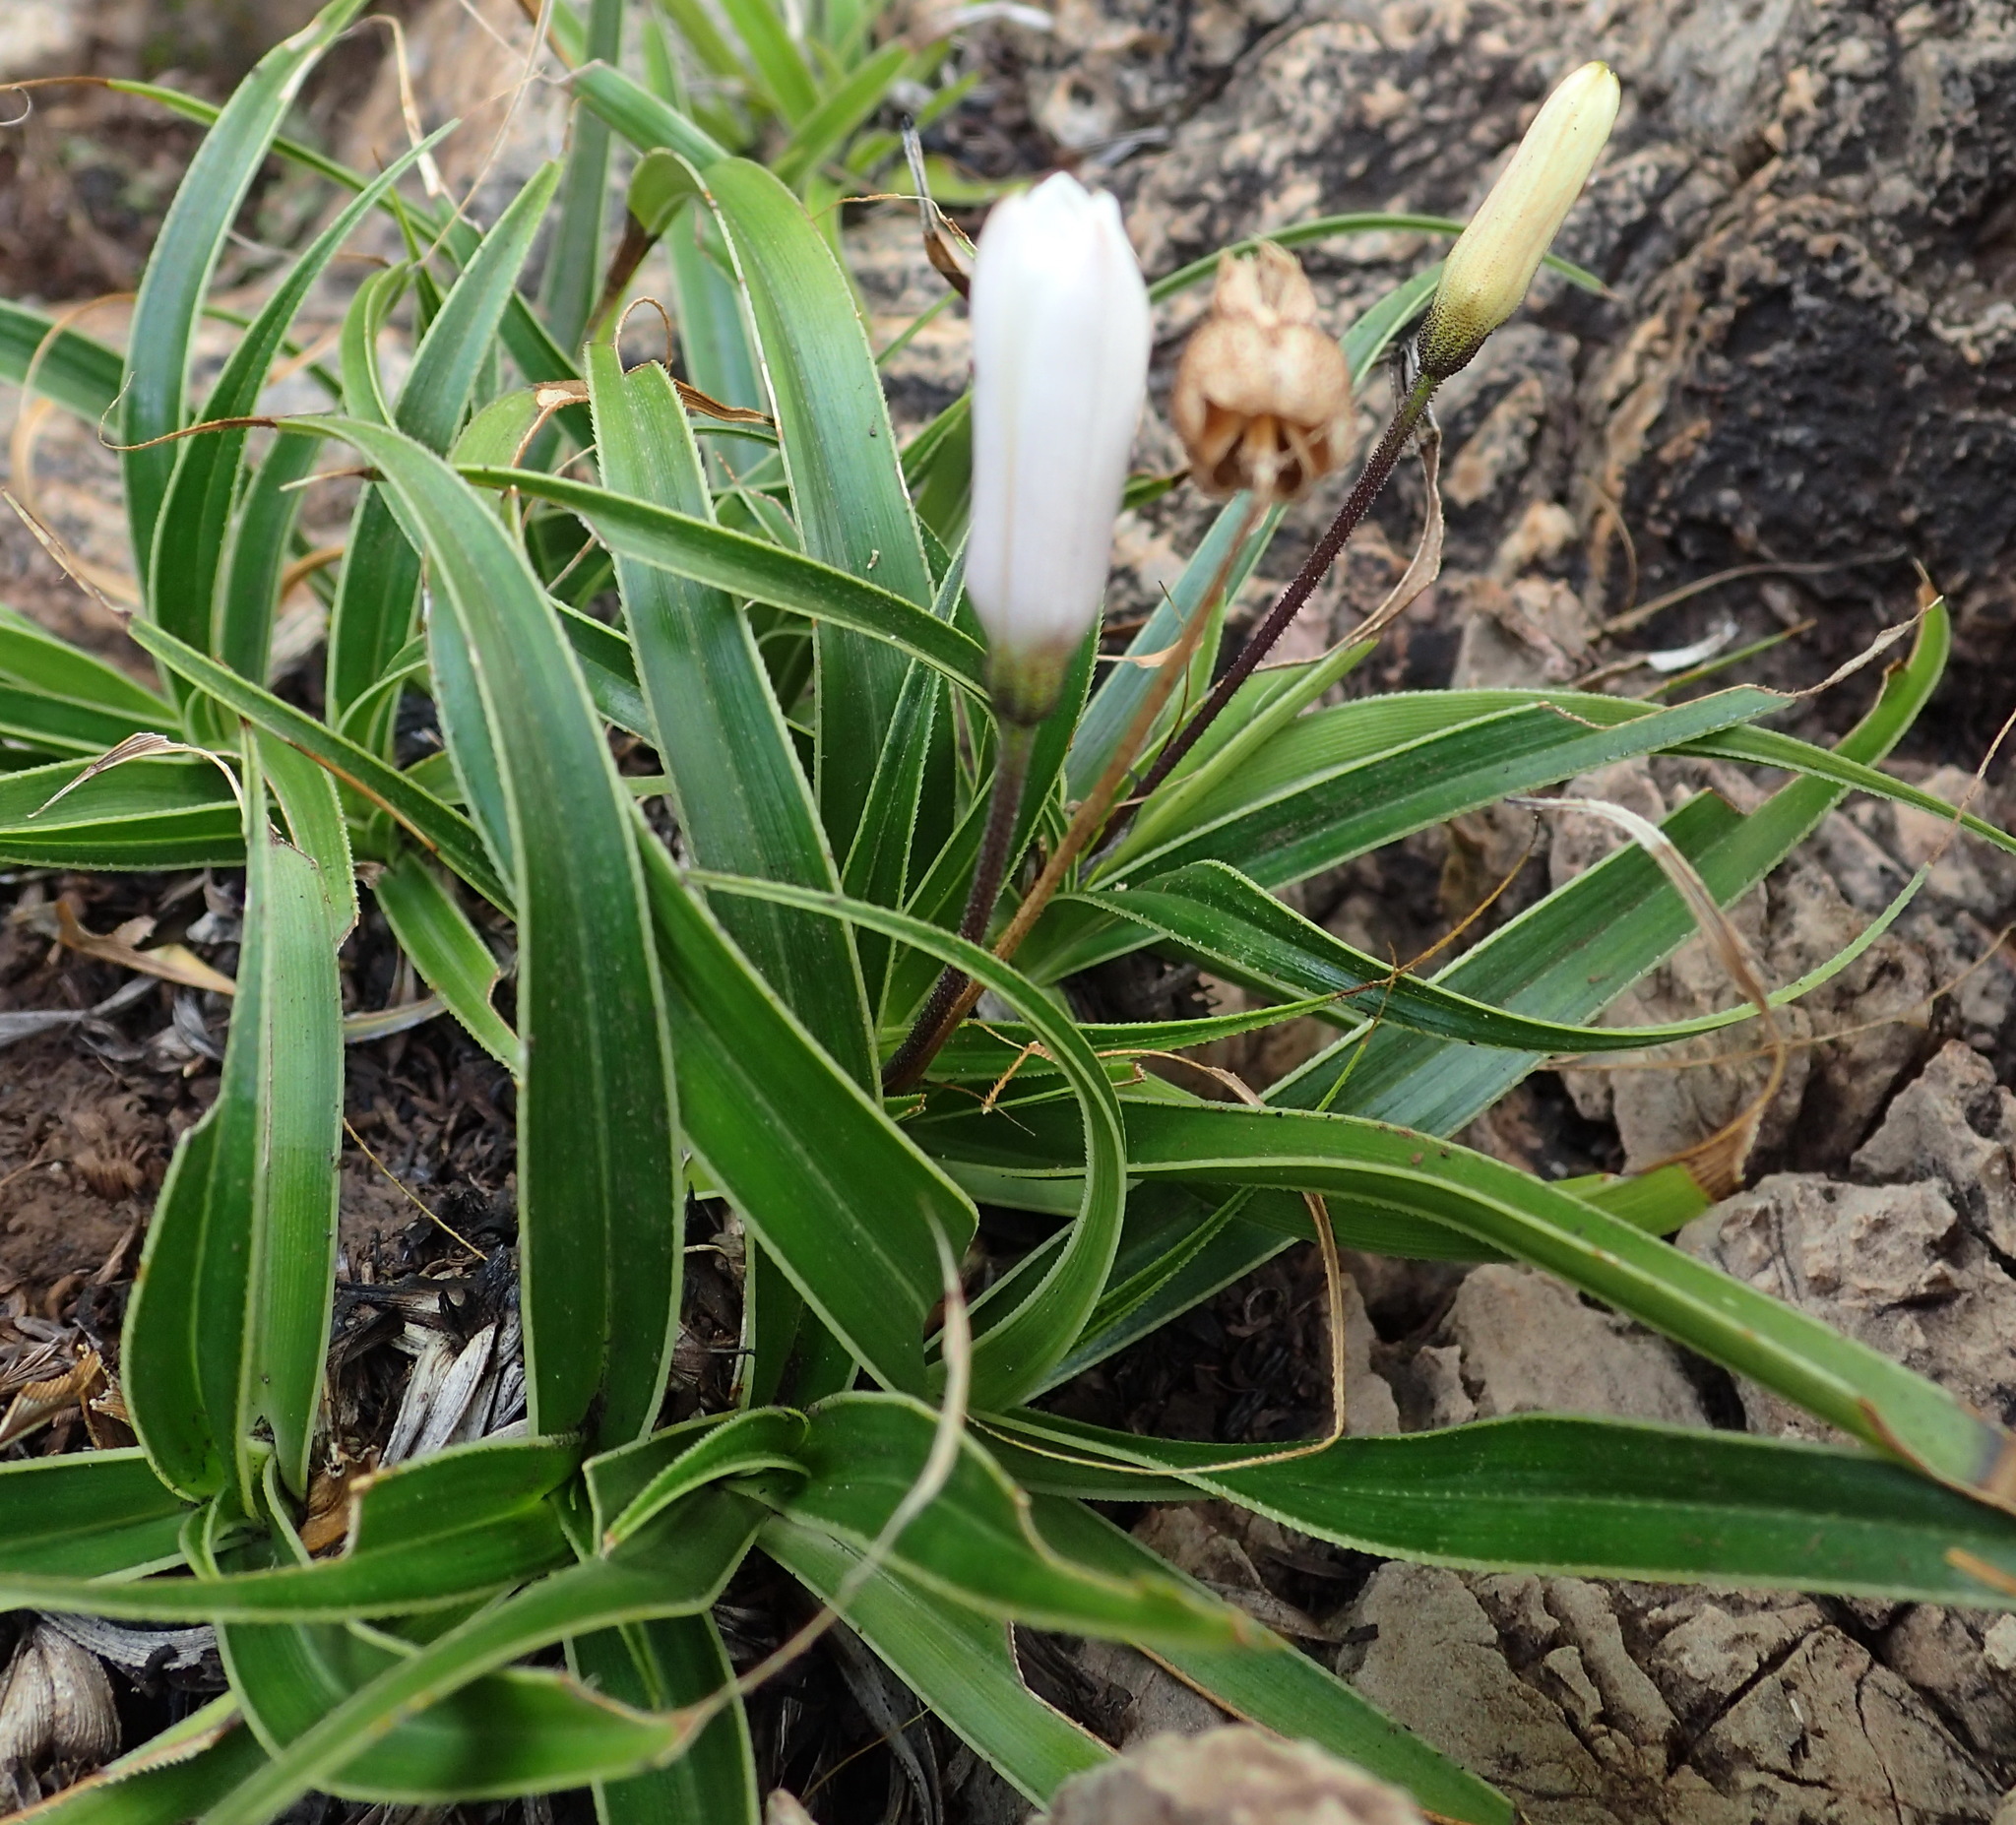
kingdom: Plantae
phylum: Tracheophyta
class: Liliopsida
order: Pandanales
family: Velloziaceae
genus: Xerophyta
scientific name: Xerophyta adendorffii
